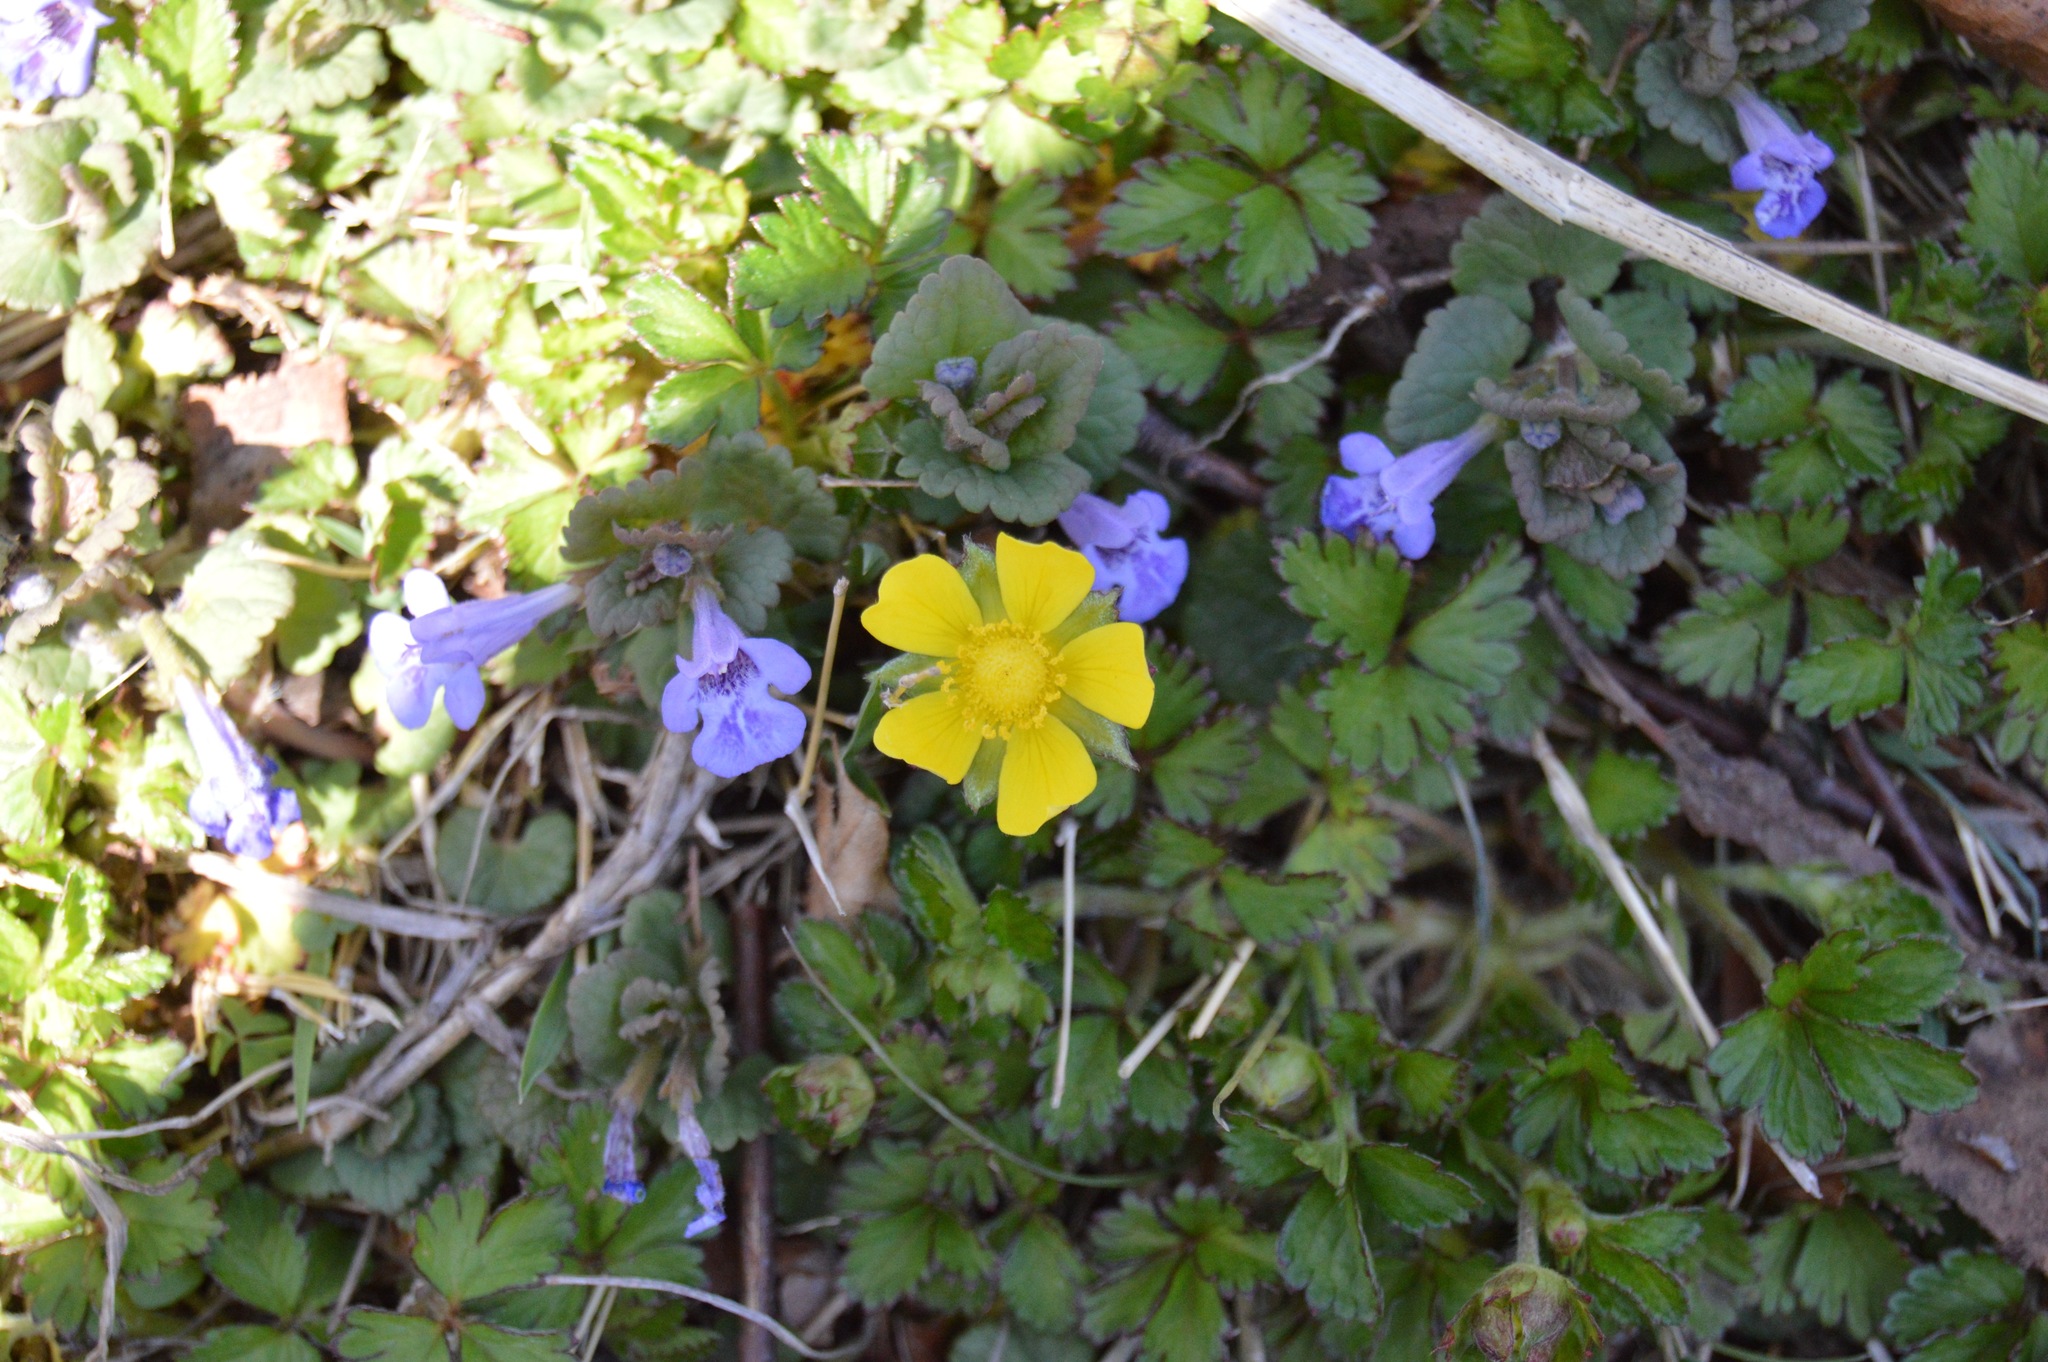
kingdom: Plantae
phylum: Tracheophyta
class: Magnoliopsida
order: Rosales
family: Rosaceae
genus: Potentilla
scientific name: Potentilla indica
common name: Yellow-flowered strawberry
